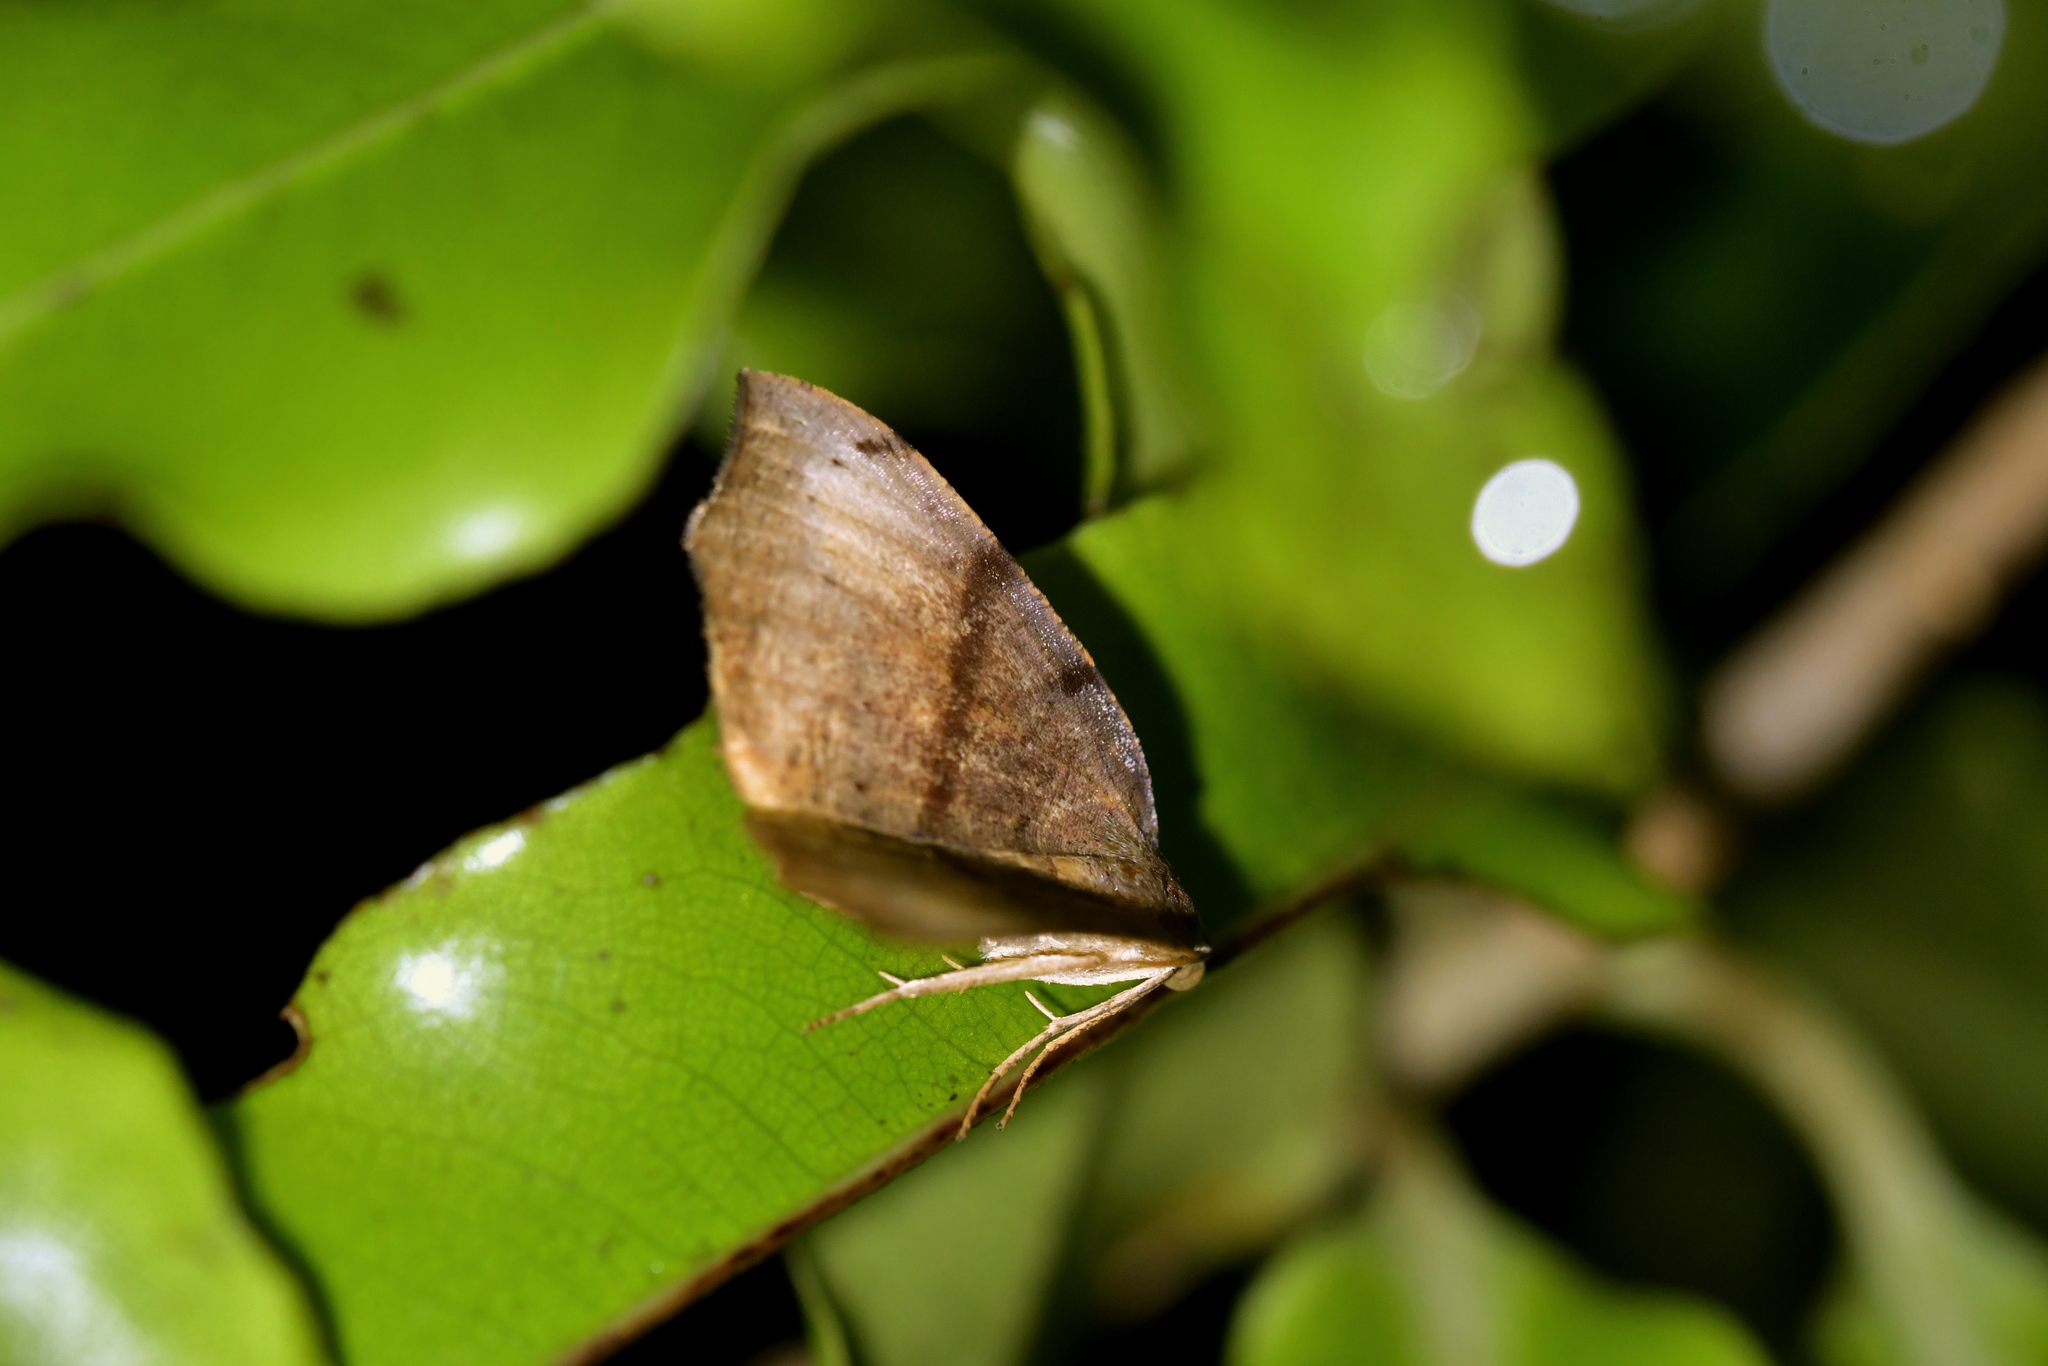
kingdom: Animalia
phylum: Arthropoda
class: Insecta
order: Lepidoptera
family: Geometridae
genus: Sestra
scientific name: Sestra flexata
